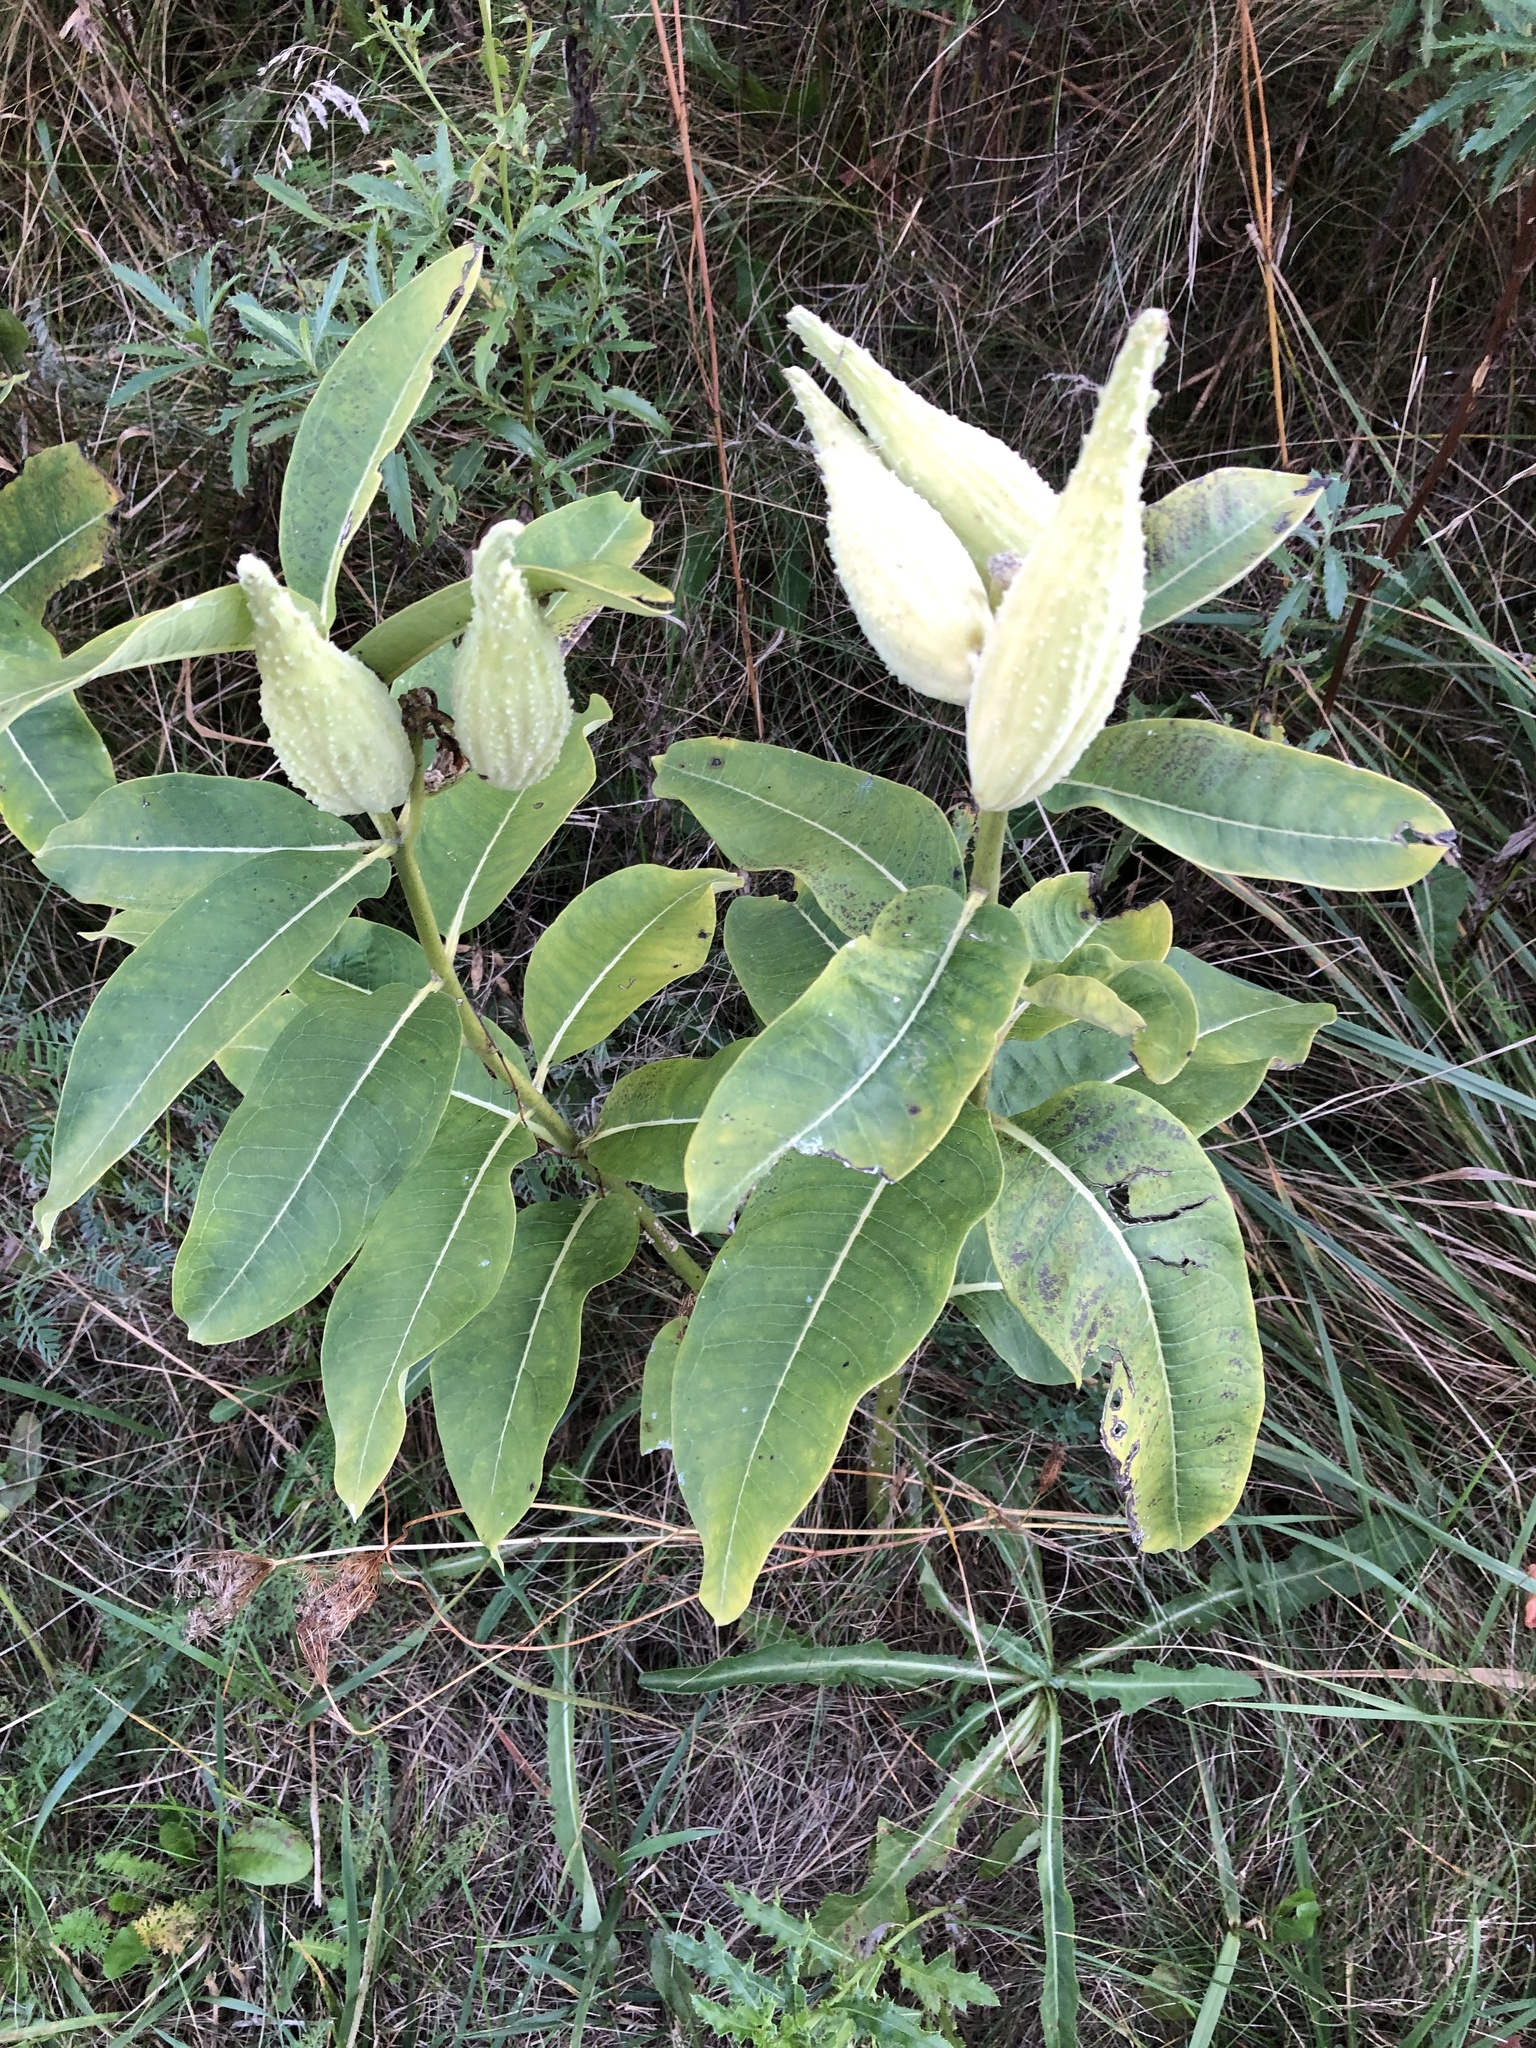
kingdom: Plantae
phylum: Tracheophyta
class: Magnoliopsida
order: Gentianales
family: Apocynaceae
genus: Asclepias
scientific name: Asclepias syriaca
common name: Common milkweed
